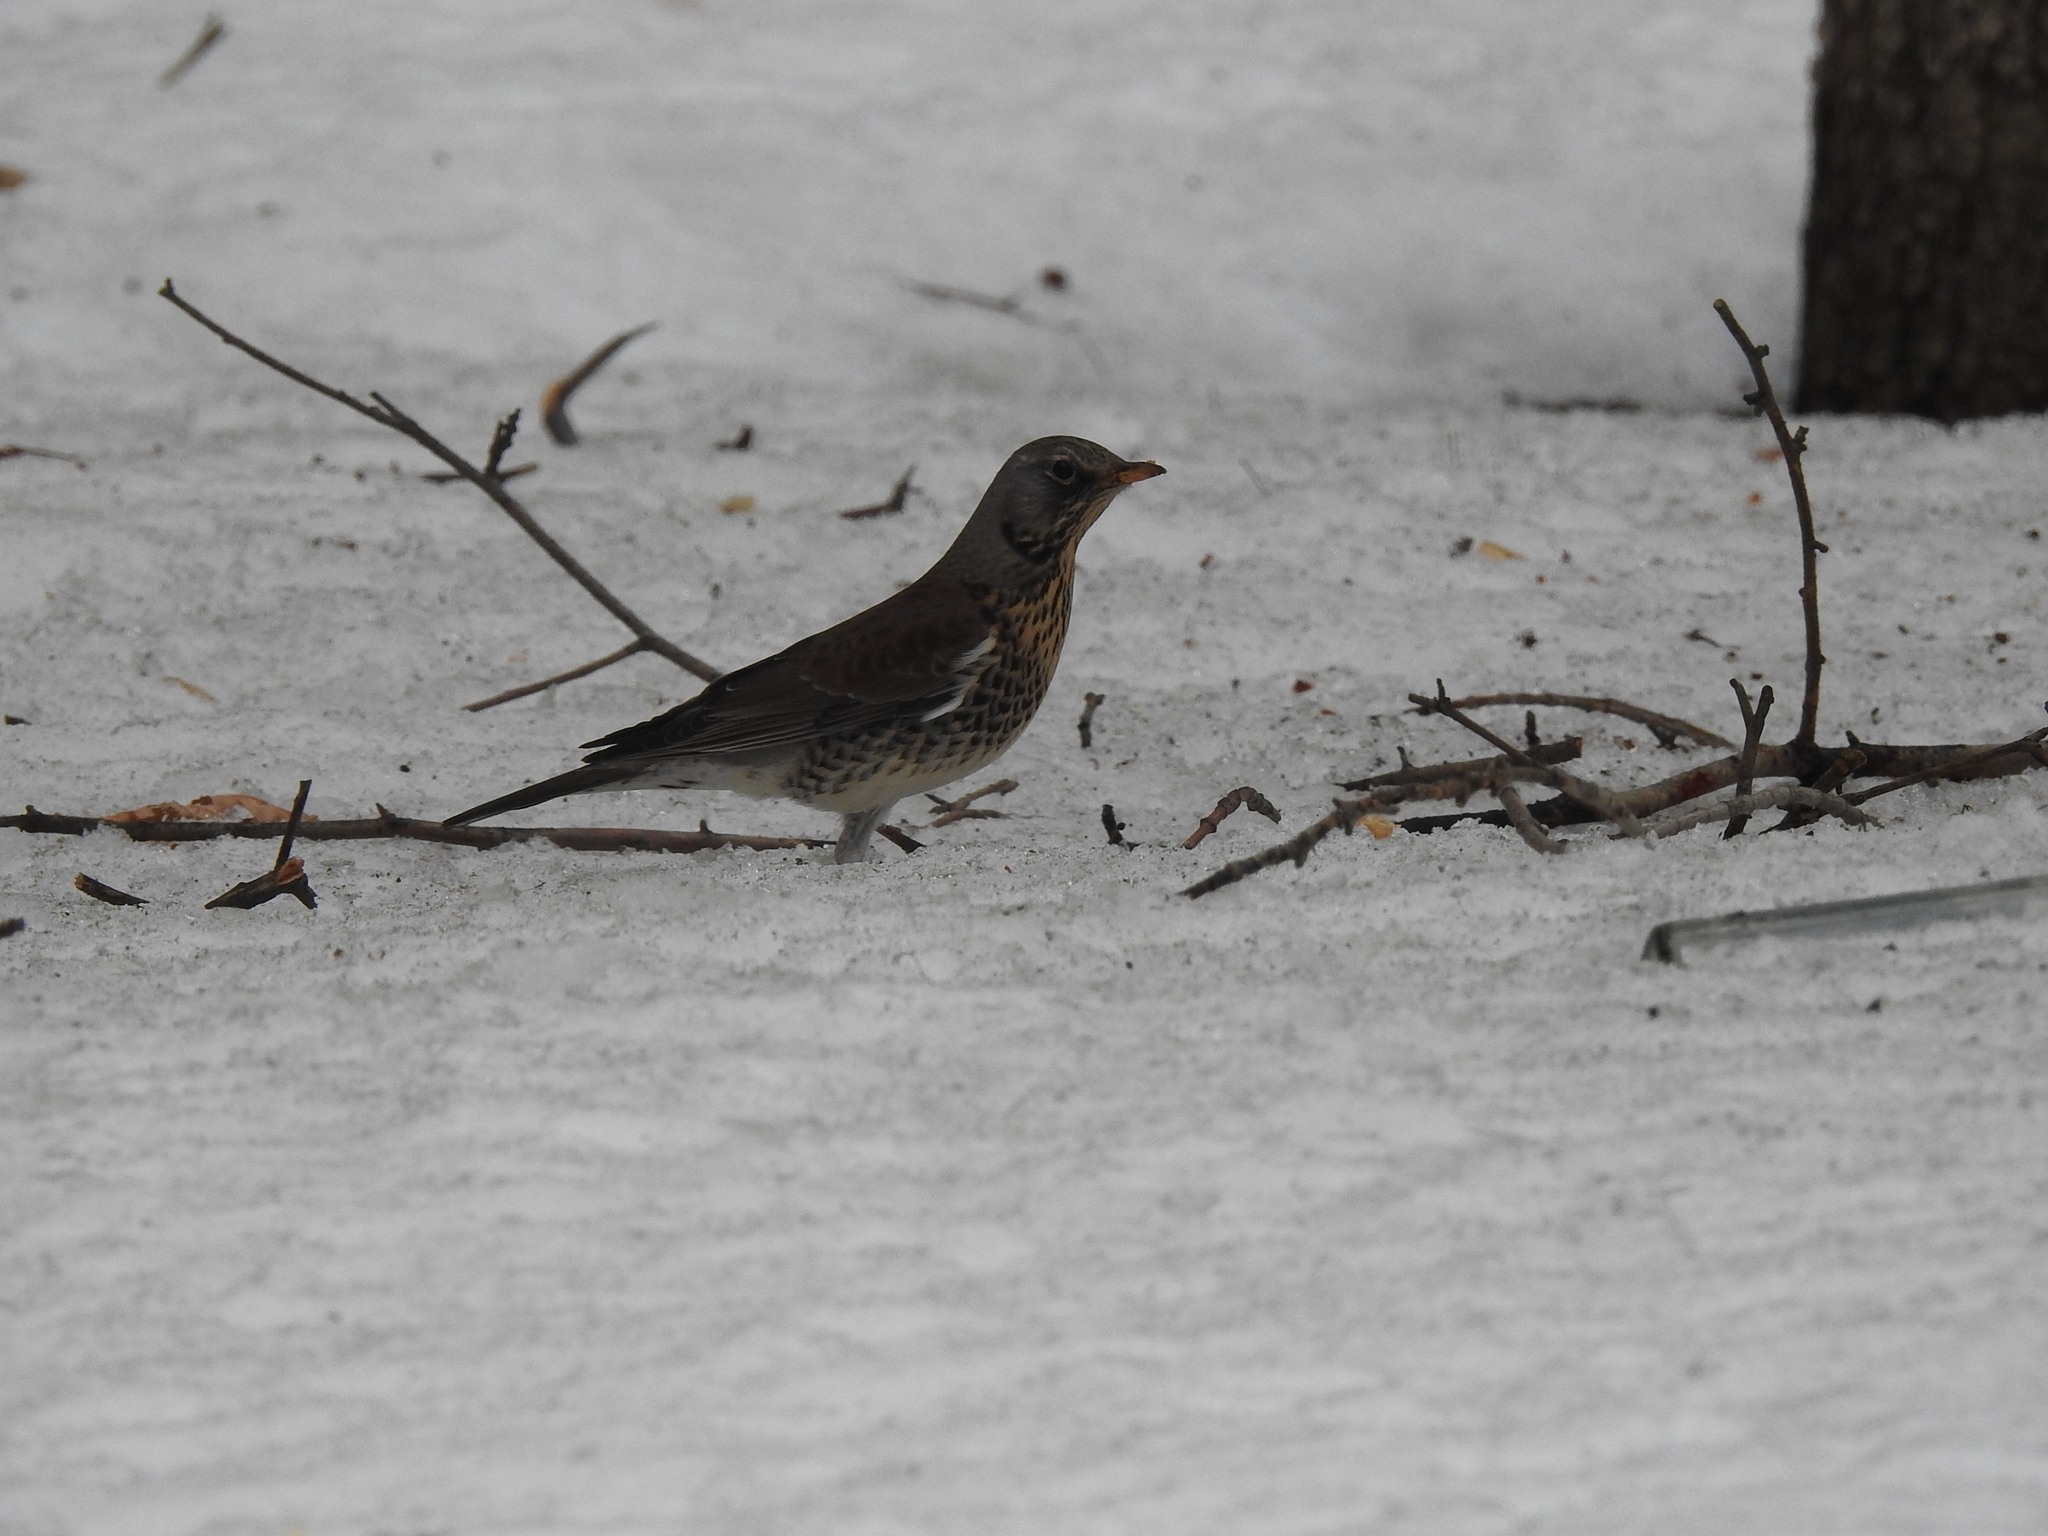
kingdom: Animalia
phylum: Chordata
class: Aves
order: Passeriformes
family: Turdidae
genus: Turdus
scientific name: Turdus pilaris
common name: Fieldfare
